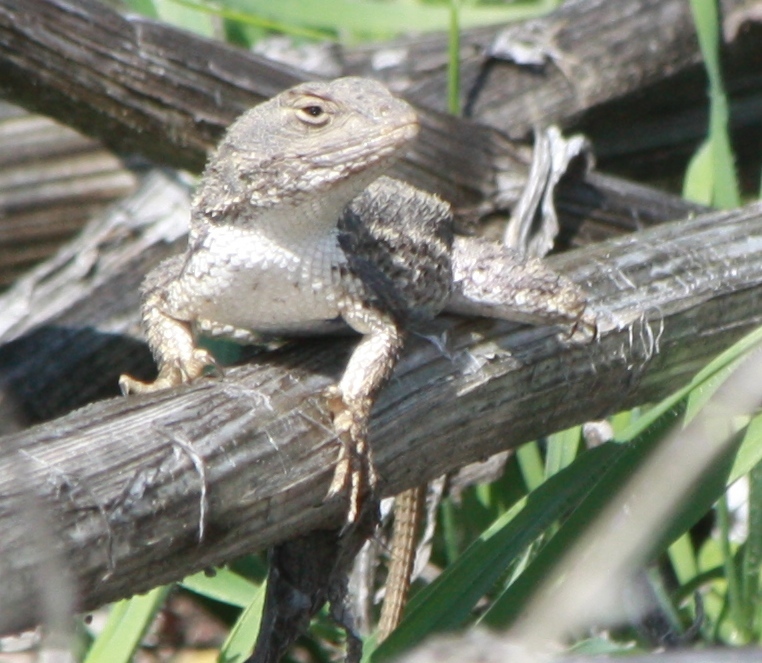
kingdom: Animalia
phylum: Chordata
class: Squamata
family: Phrynosomatidae
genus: Sceloporus
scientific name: Sceloporus occidentalis
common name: Western fence lizard
